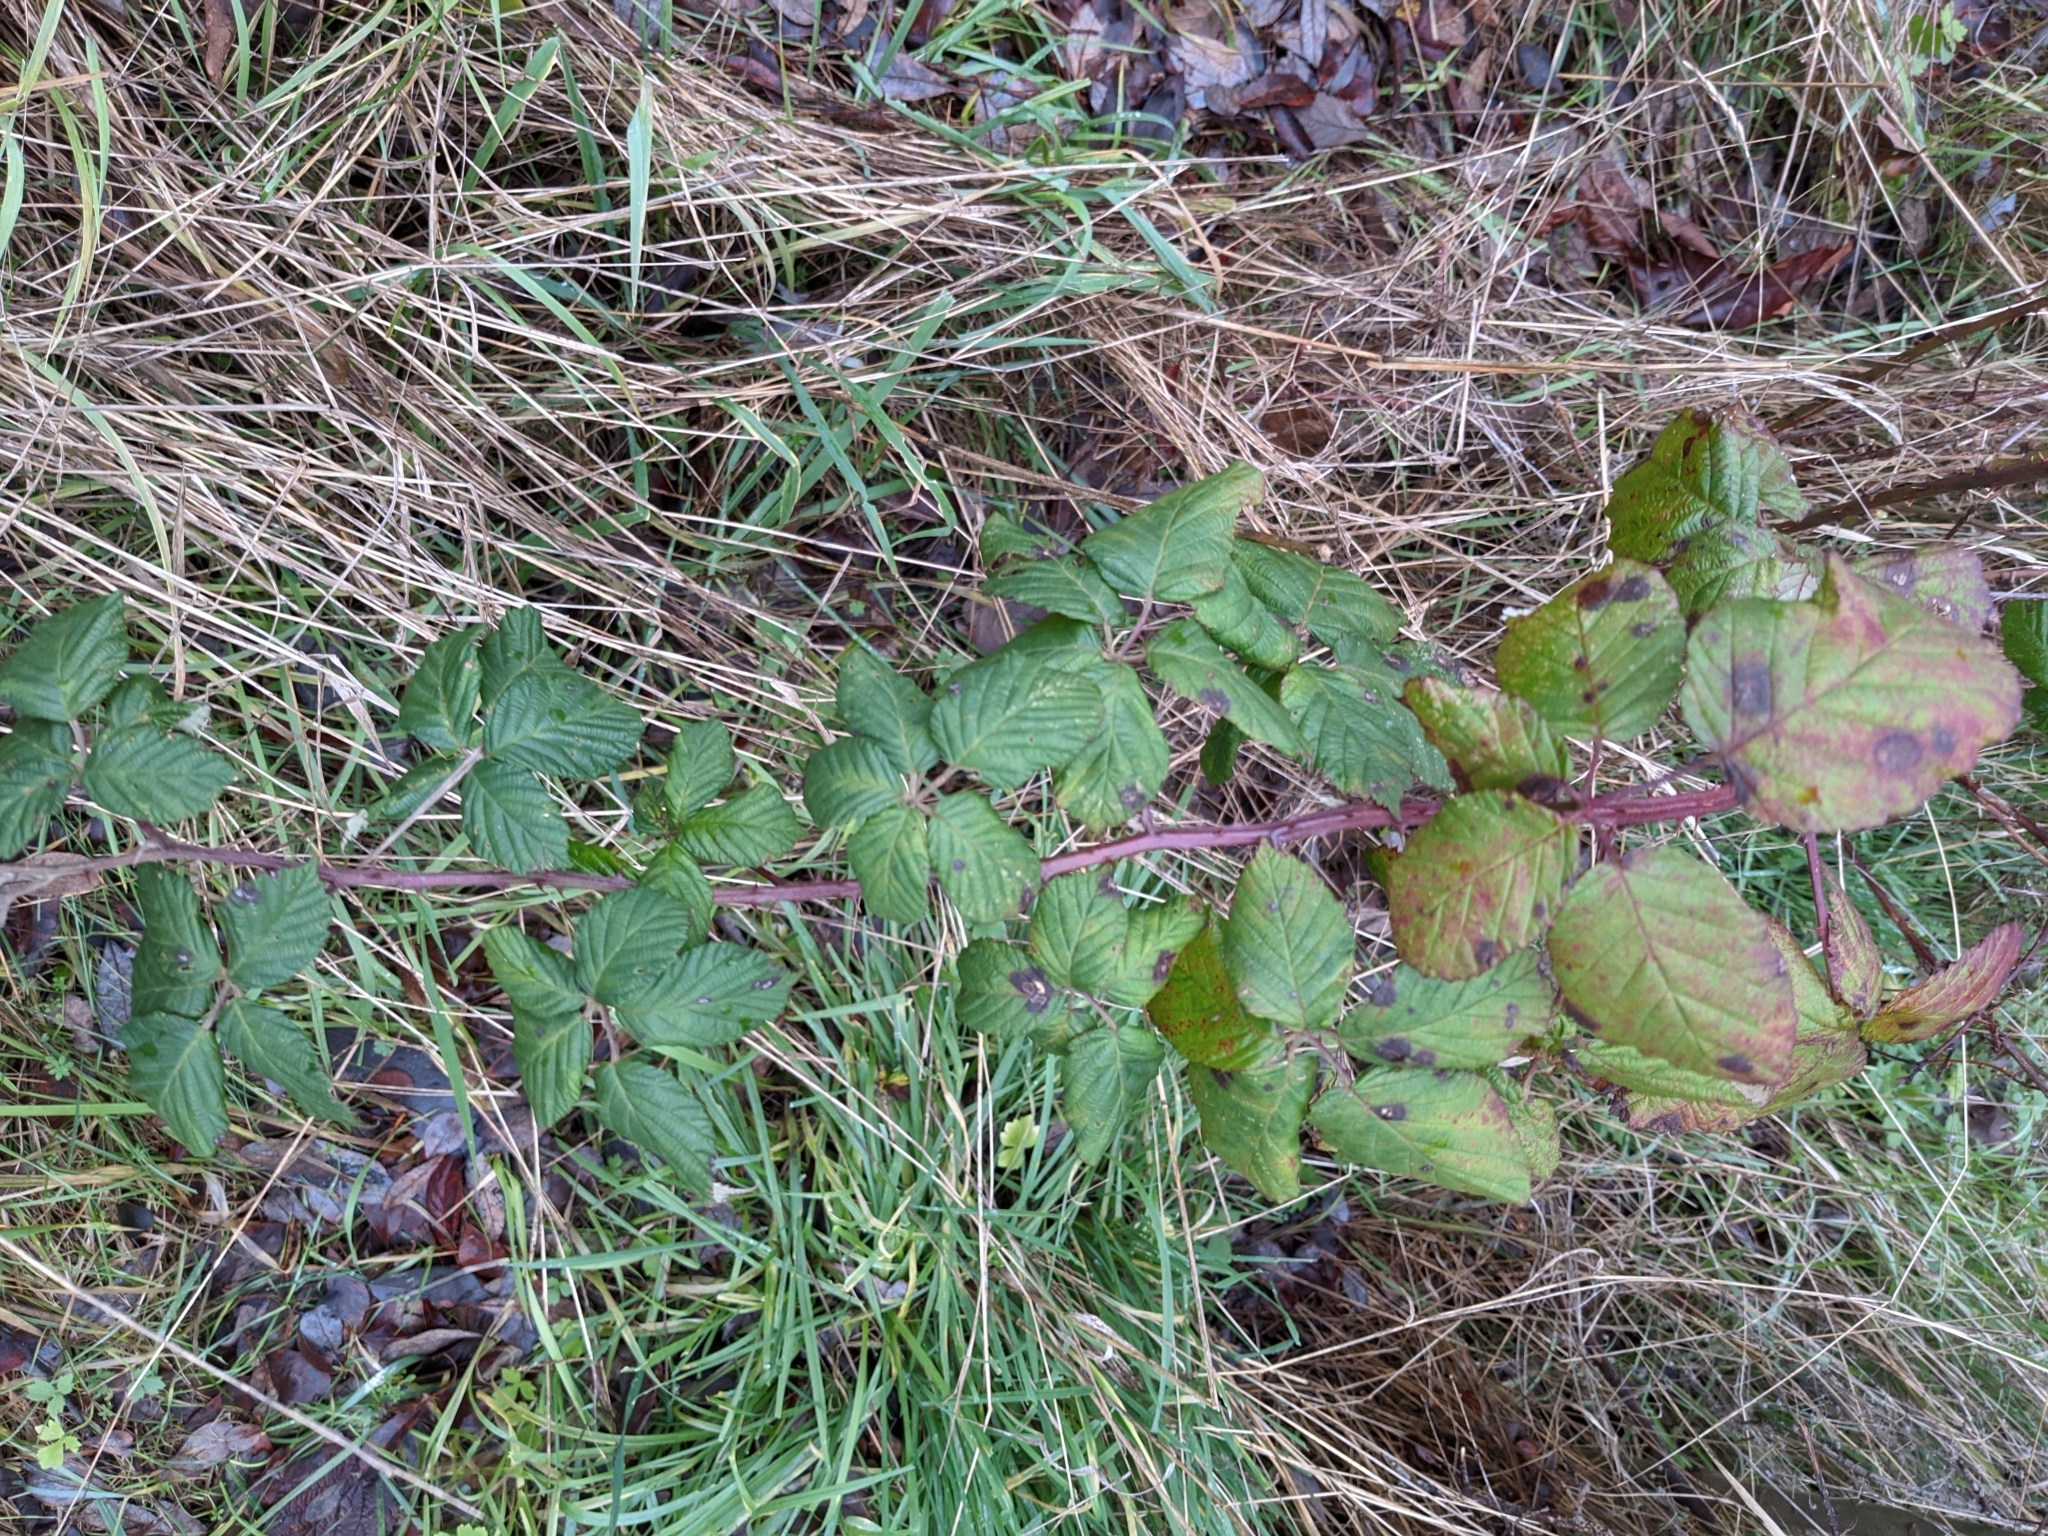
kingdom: Plantae
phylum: Tracheophyta
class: Magnoliopsida
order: Rosales
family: Rosaceae
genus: Rubus
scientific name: Rubus armeniacus
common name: Himalayan blackberry
